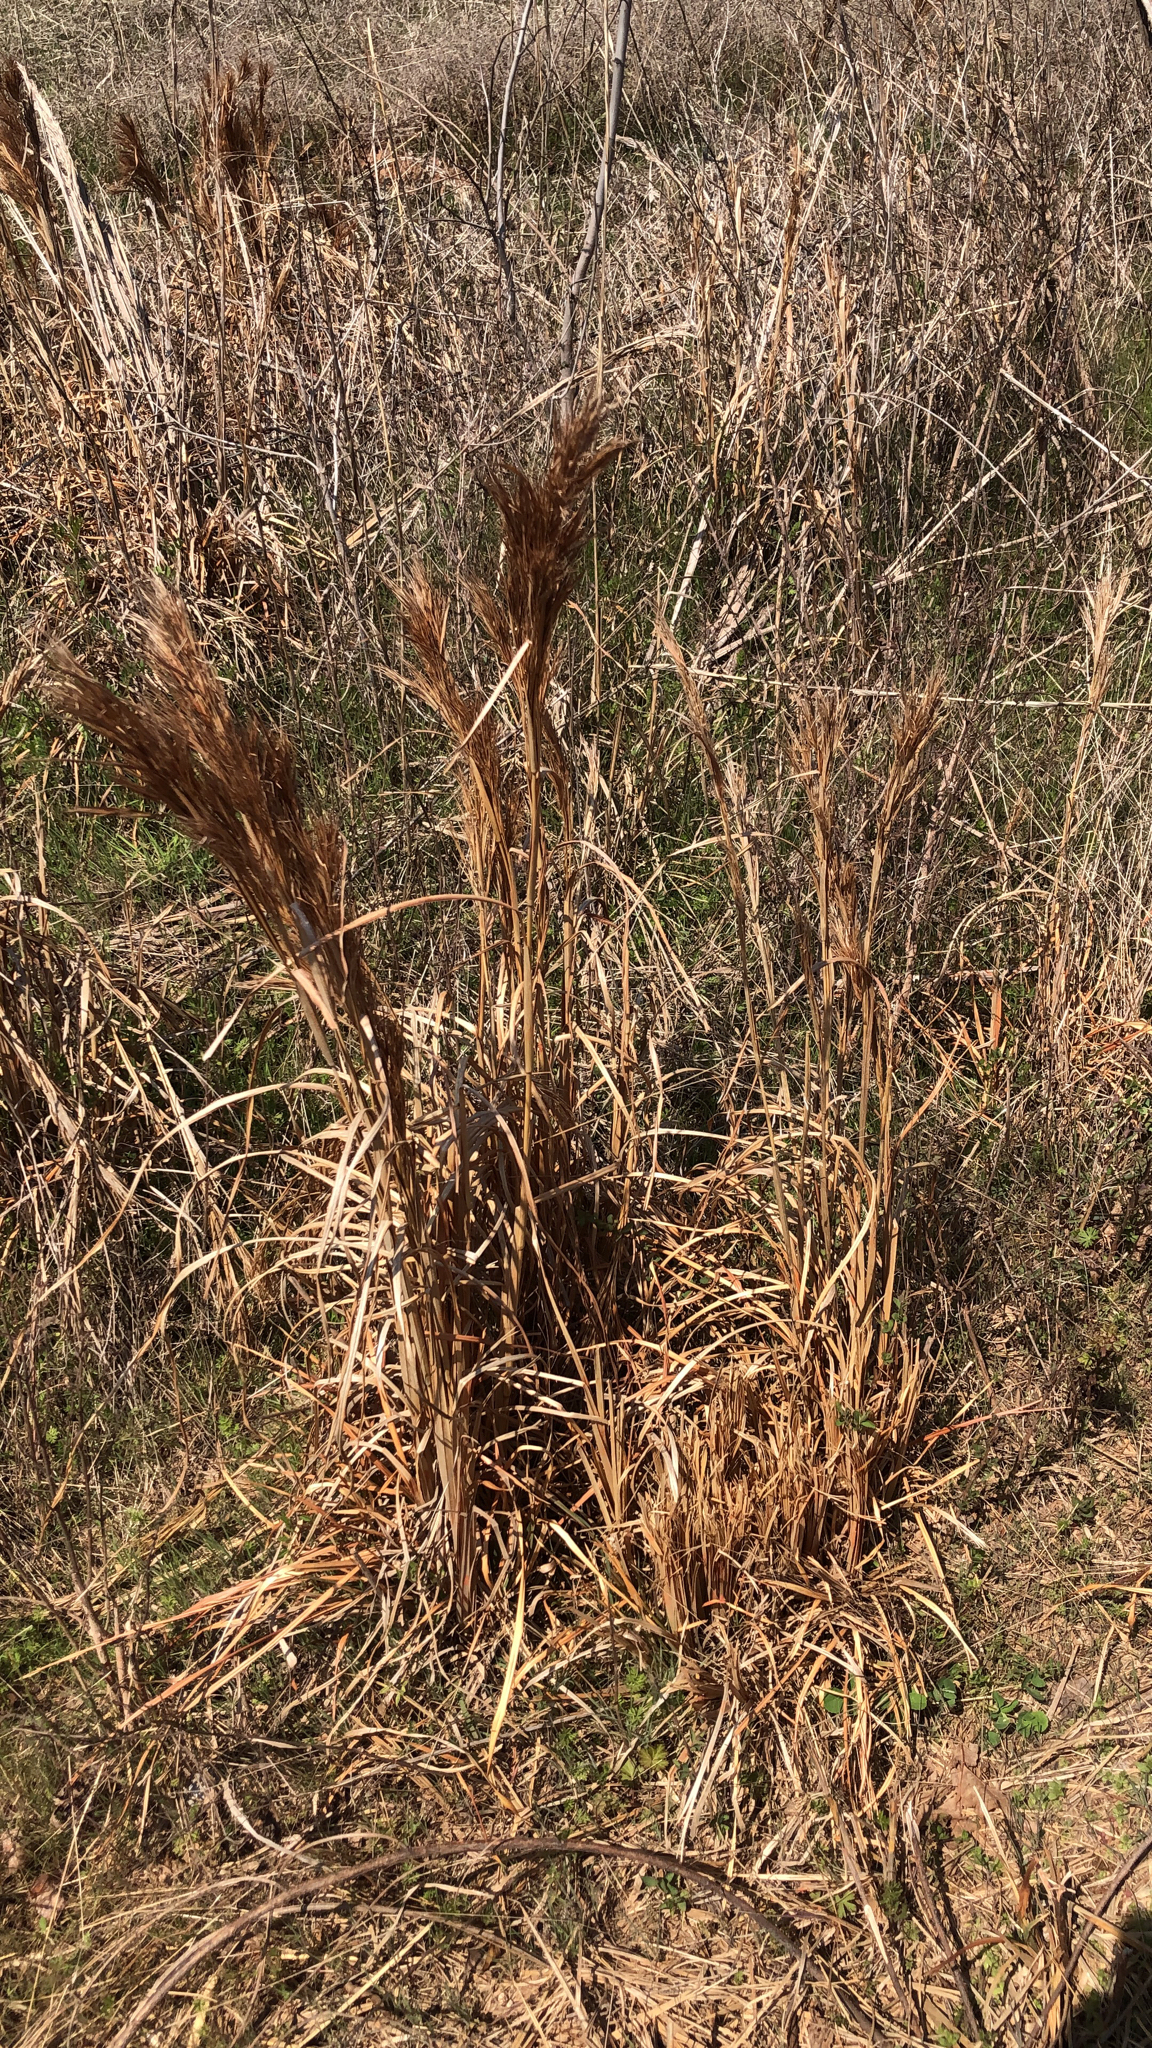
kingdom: Plantae
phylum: Tracheophyta
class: Liliopsida
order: Poales
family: Poaceae
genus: Andropogon
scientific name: Andropogon tenuispatheus
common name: Bushy bluestem
